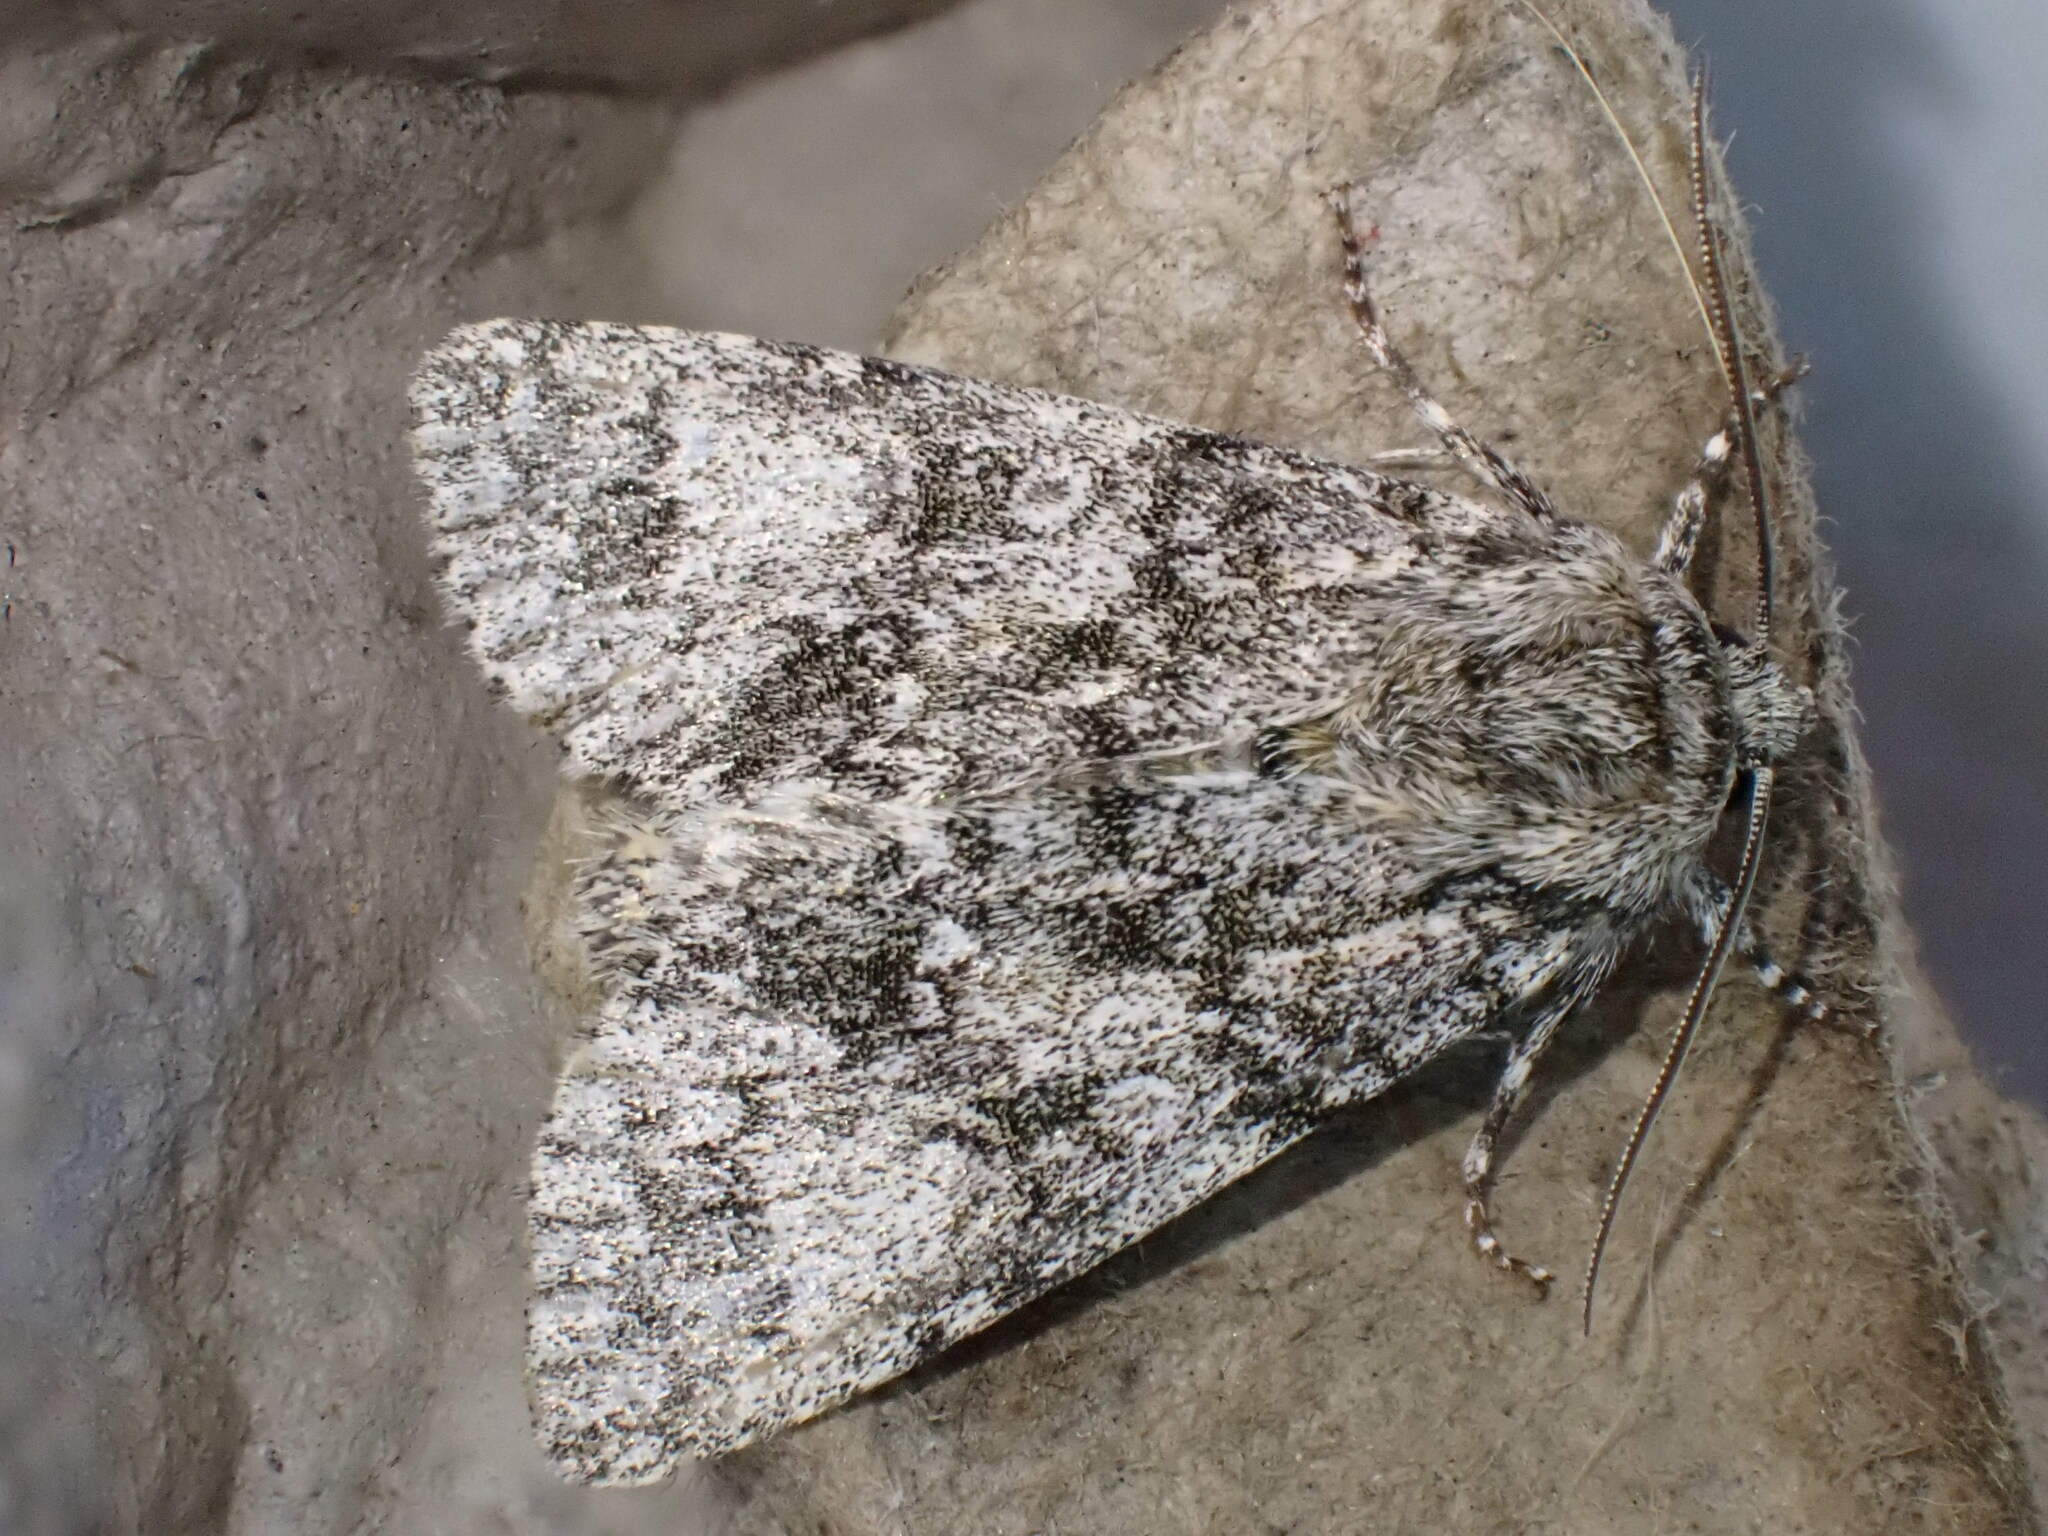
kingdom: Animalia
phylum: Arthropoda
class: Insecta
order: Lepidoptera
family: Noctuidae
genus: Acronicta
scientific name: Acronicta megacephala
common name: Poplar grey
